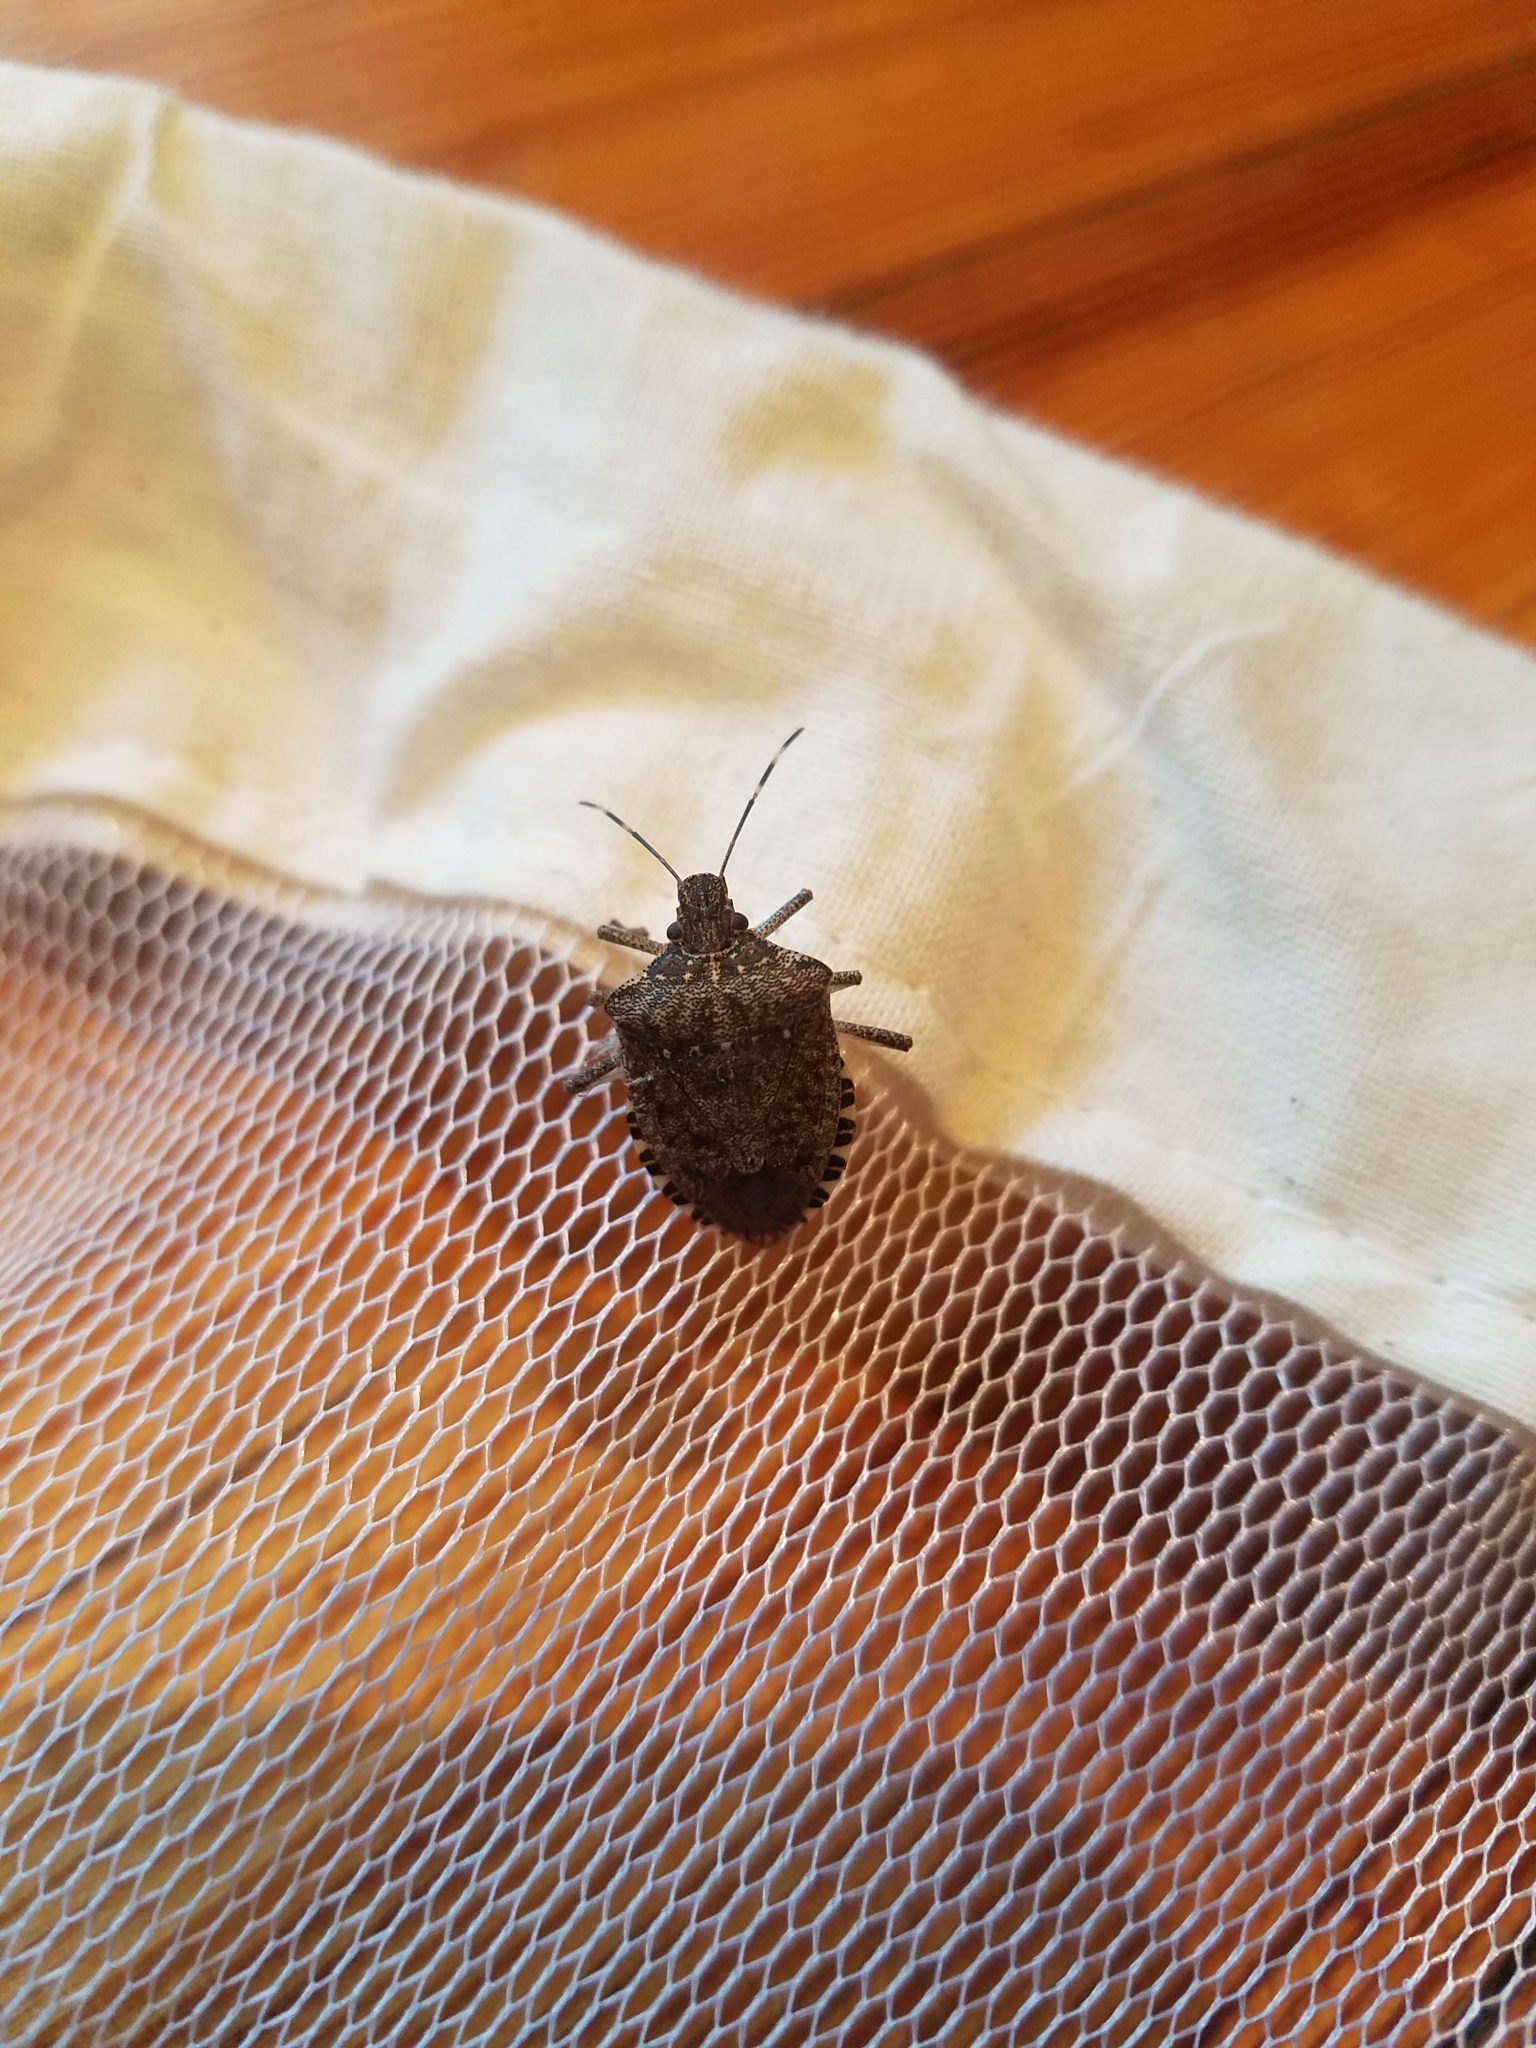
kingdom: Animalia
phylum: Arthropoda
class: Insecta
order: Hemiptera
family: Pentatomidae
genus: Halyomorpha
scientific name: Halyomorpha halys
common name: Brown marmorated stink bug
